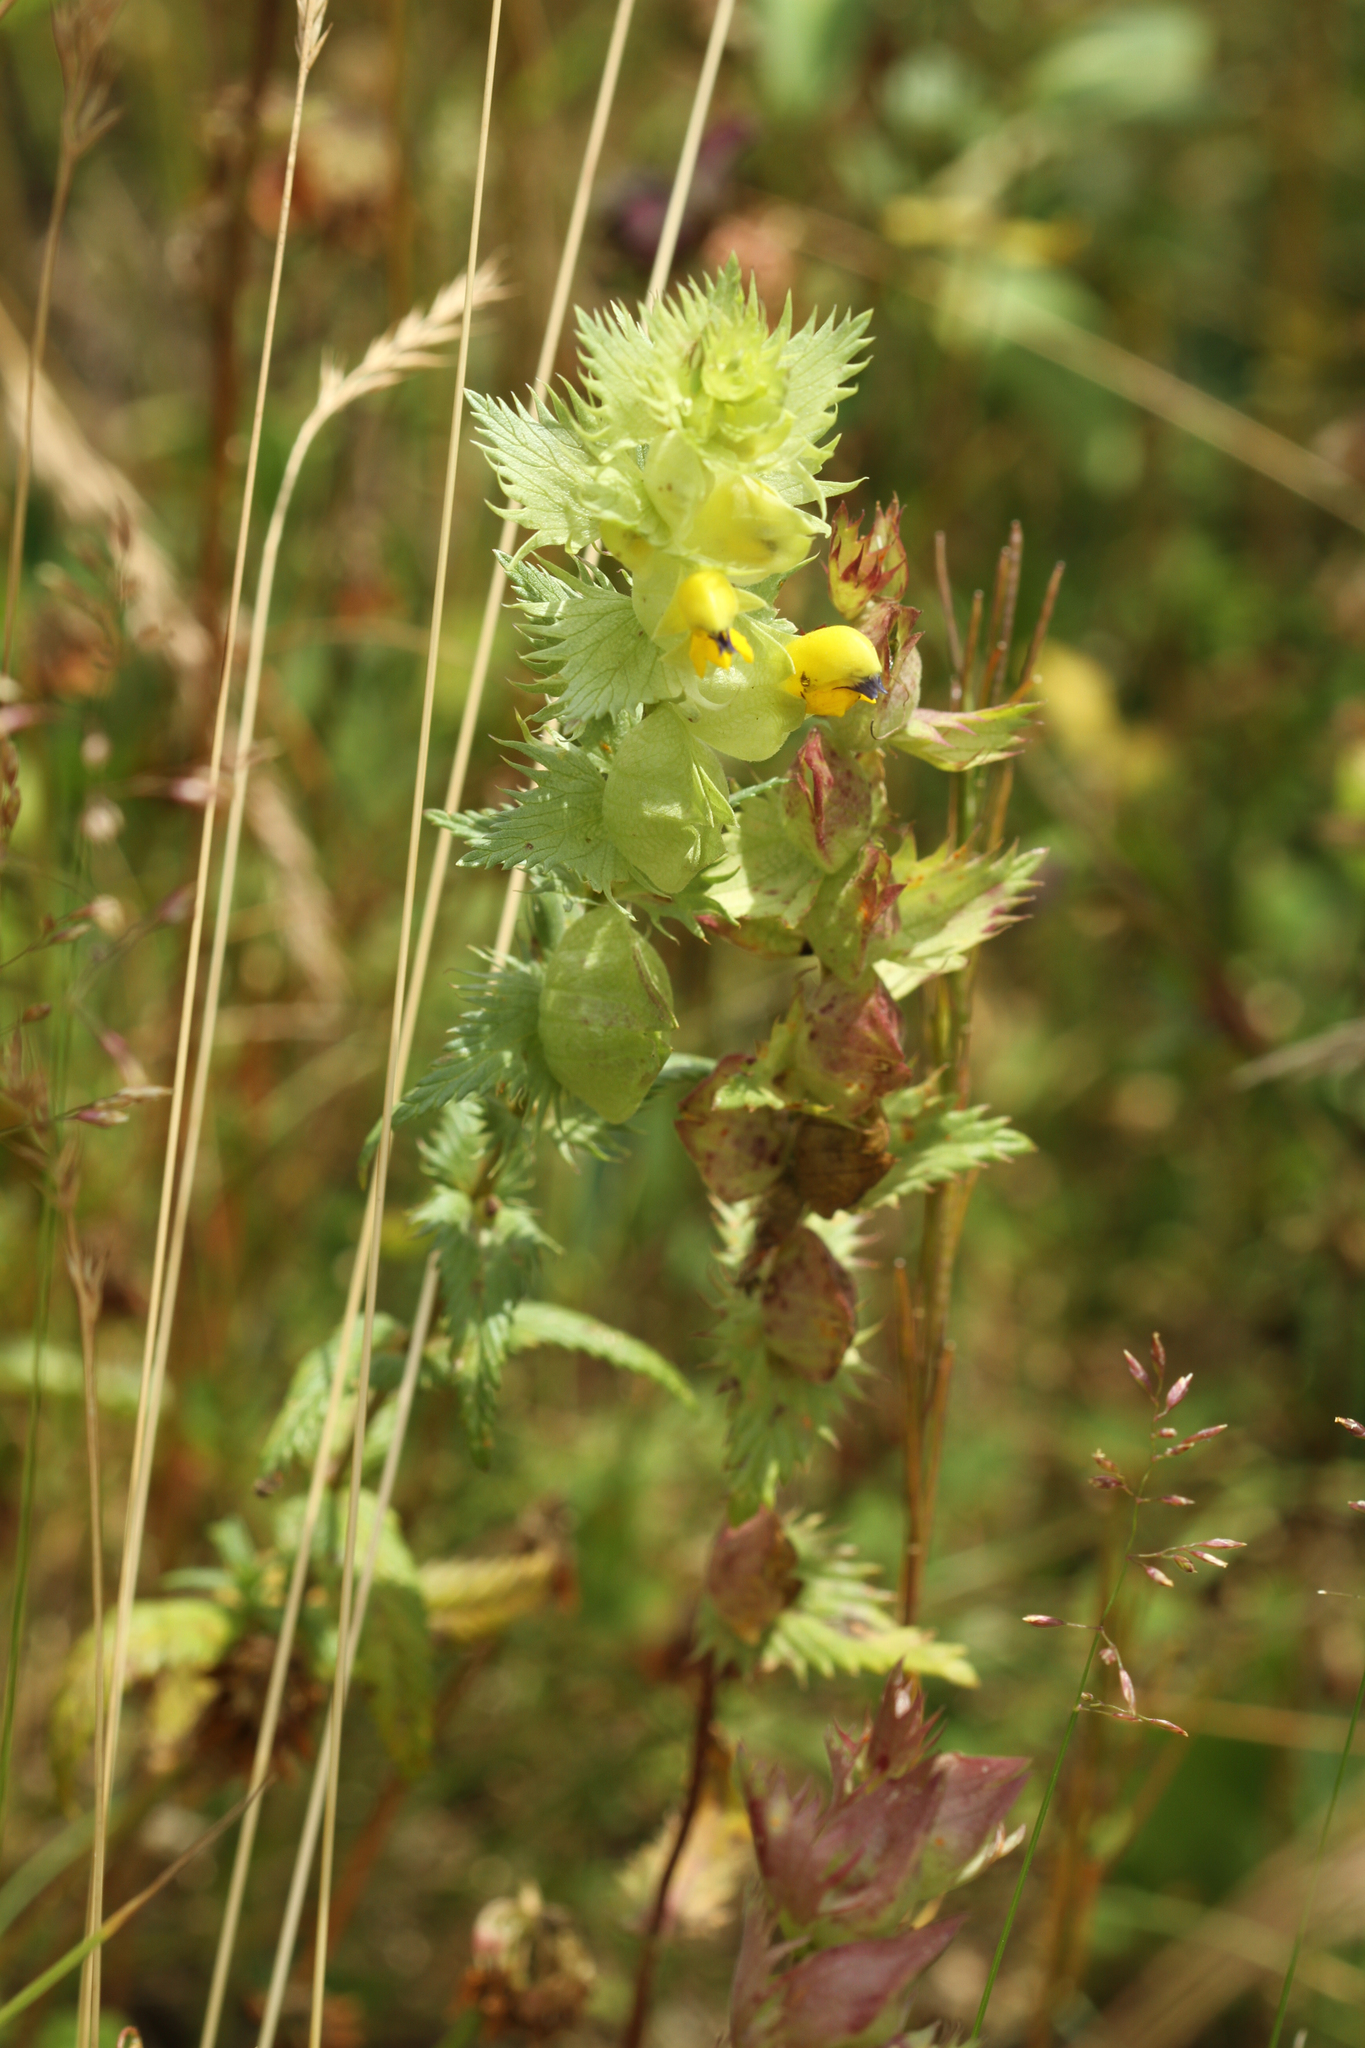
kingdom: Plantae
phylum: Tracheophyta
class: Magnoliopsida
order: Lamiales
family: Orobanchaceae
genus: Rhinanthus
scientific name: Rhinanthus alectorolophus
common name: Greater yellow-rattle
